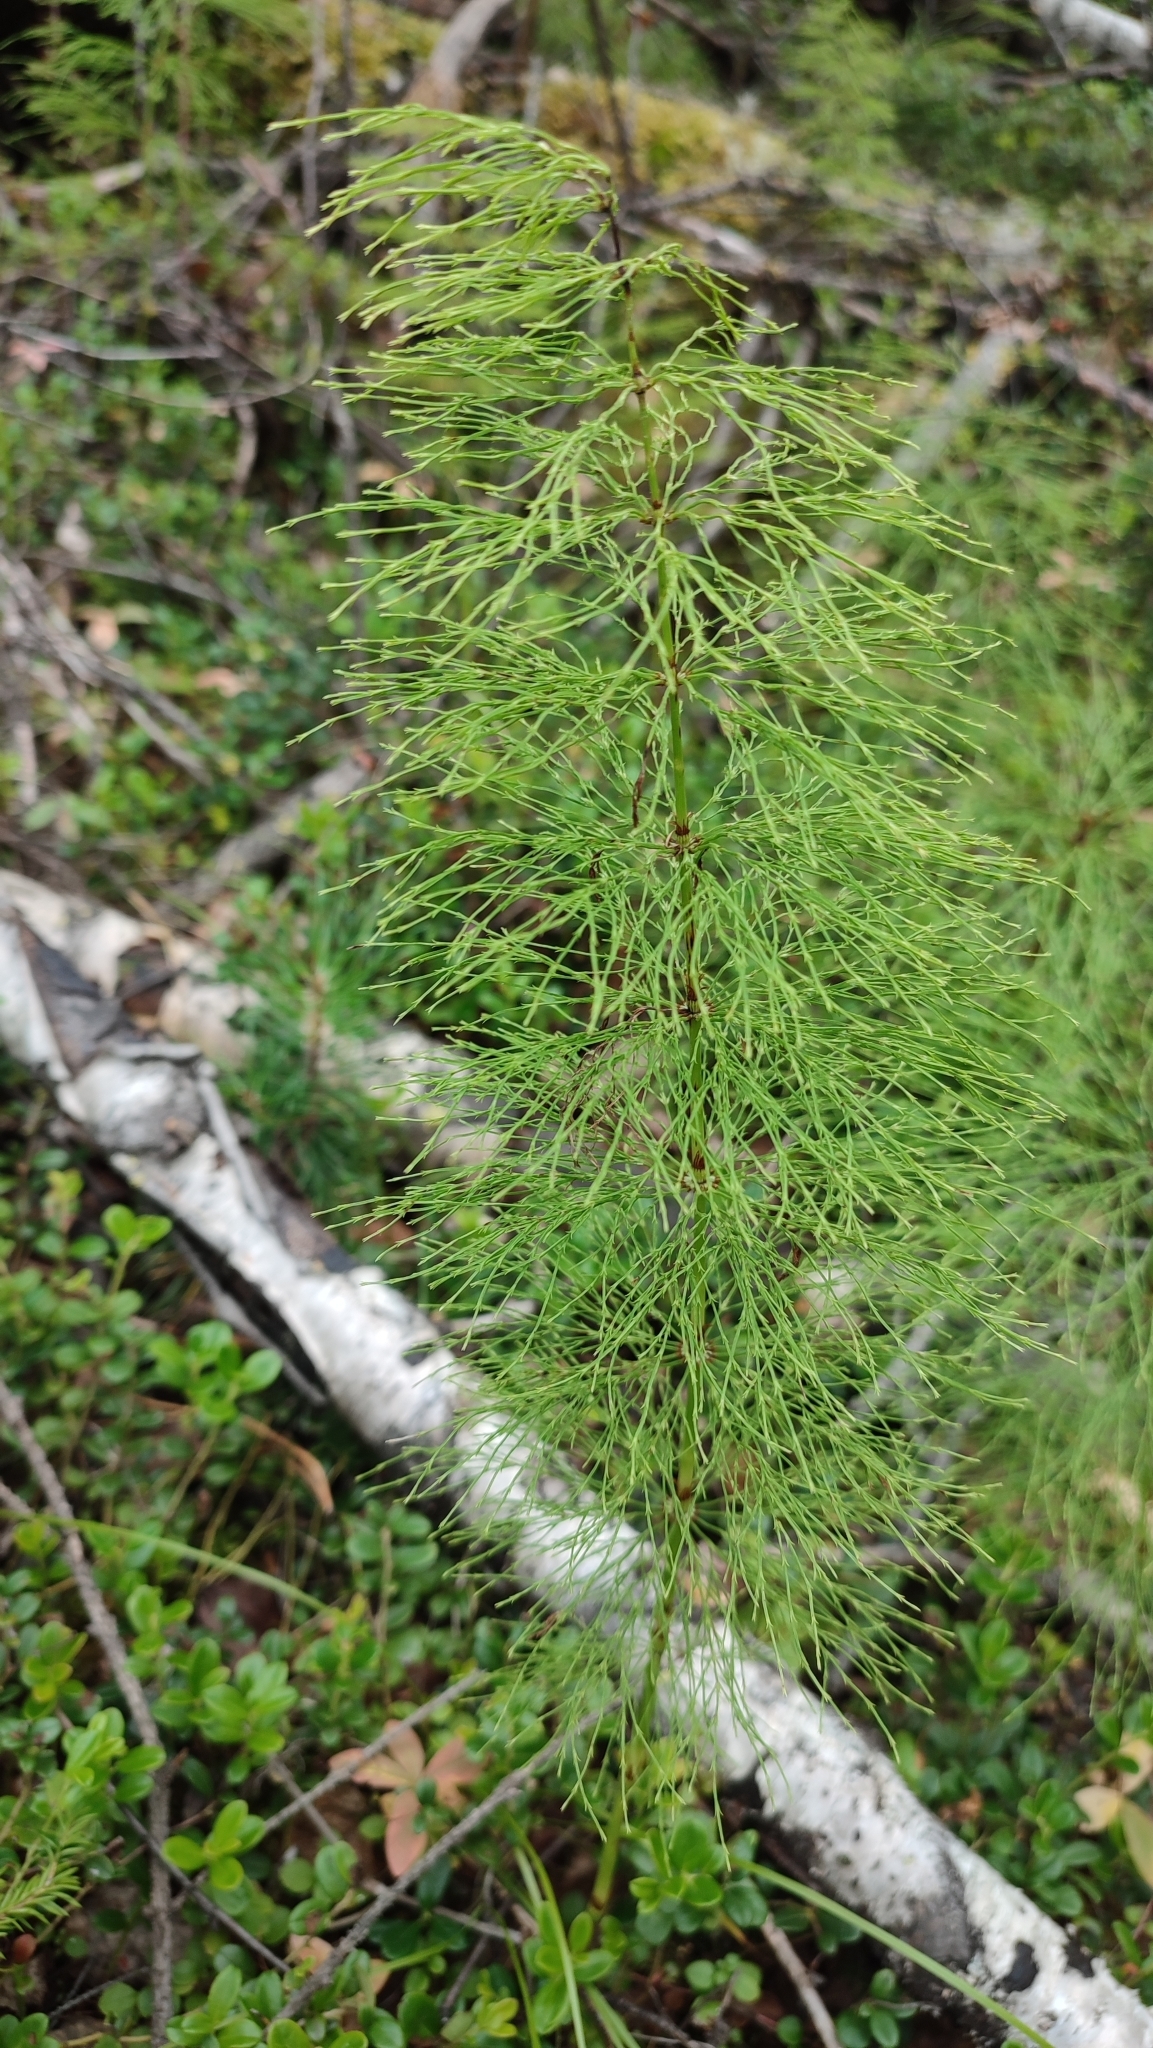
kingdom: Plantae
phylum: Tracheophyta
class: Polypodiopsida
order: Equisetales
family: Equisetaceae
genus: Equisetum
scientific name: Equisetum sylvaticum
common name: Wood horsetail
